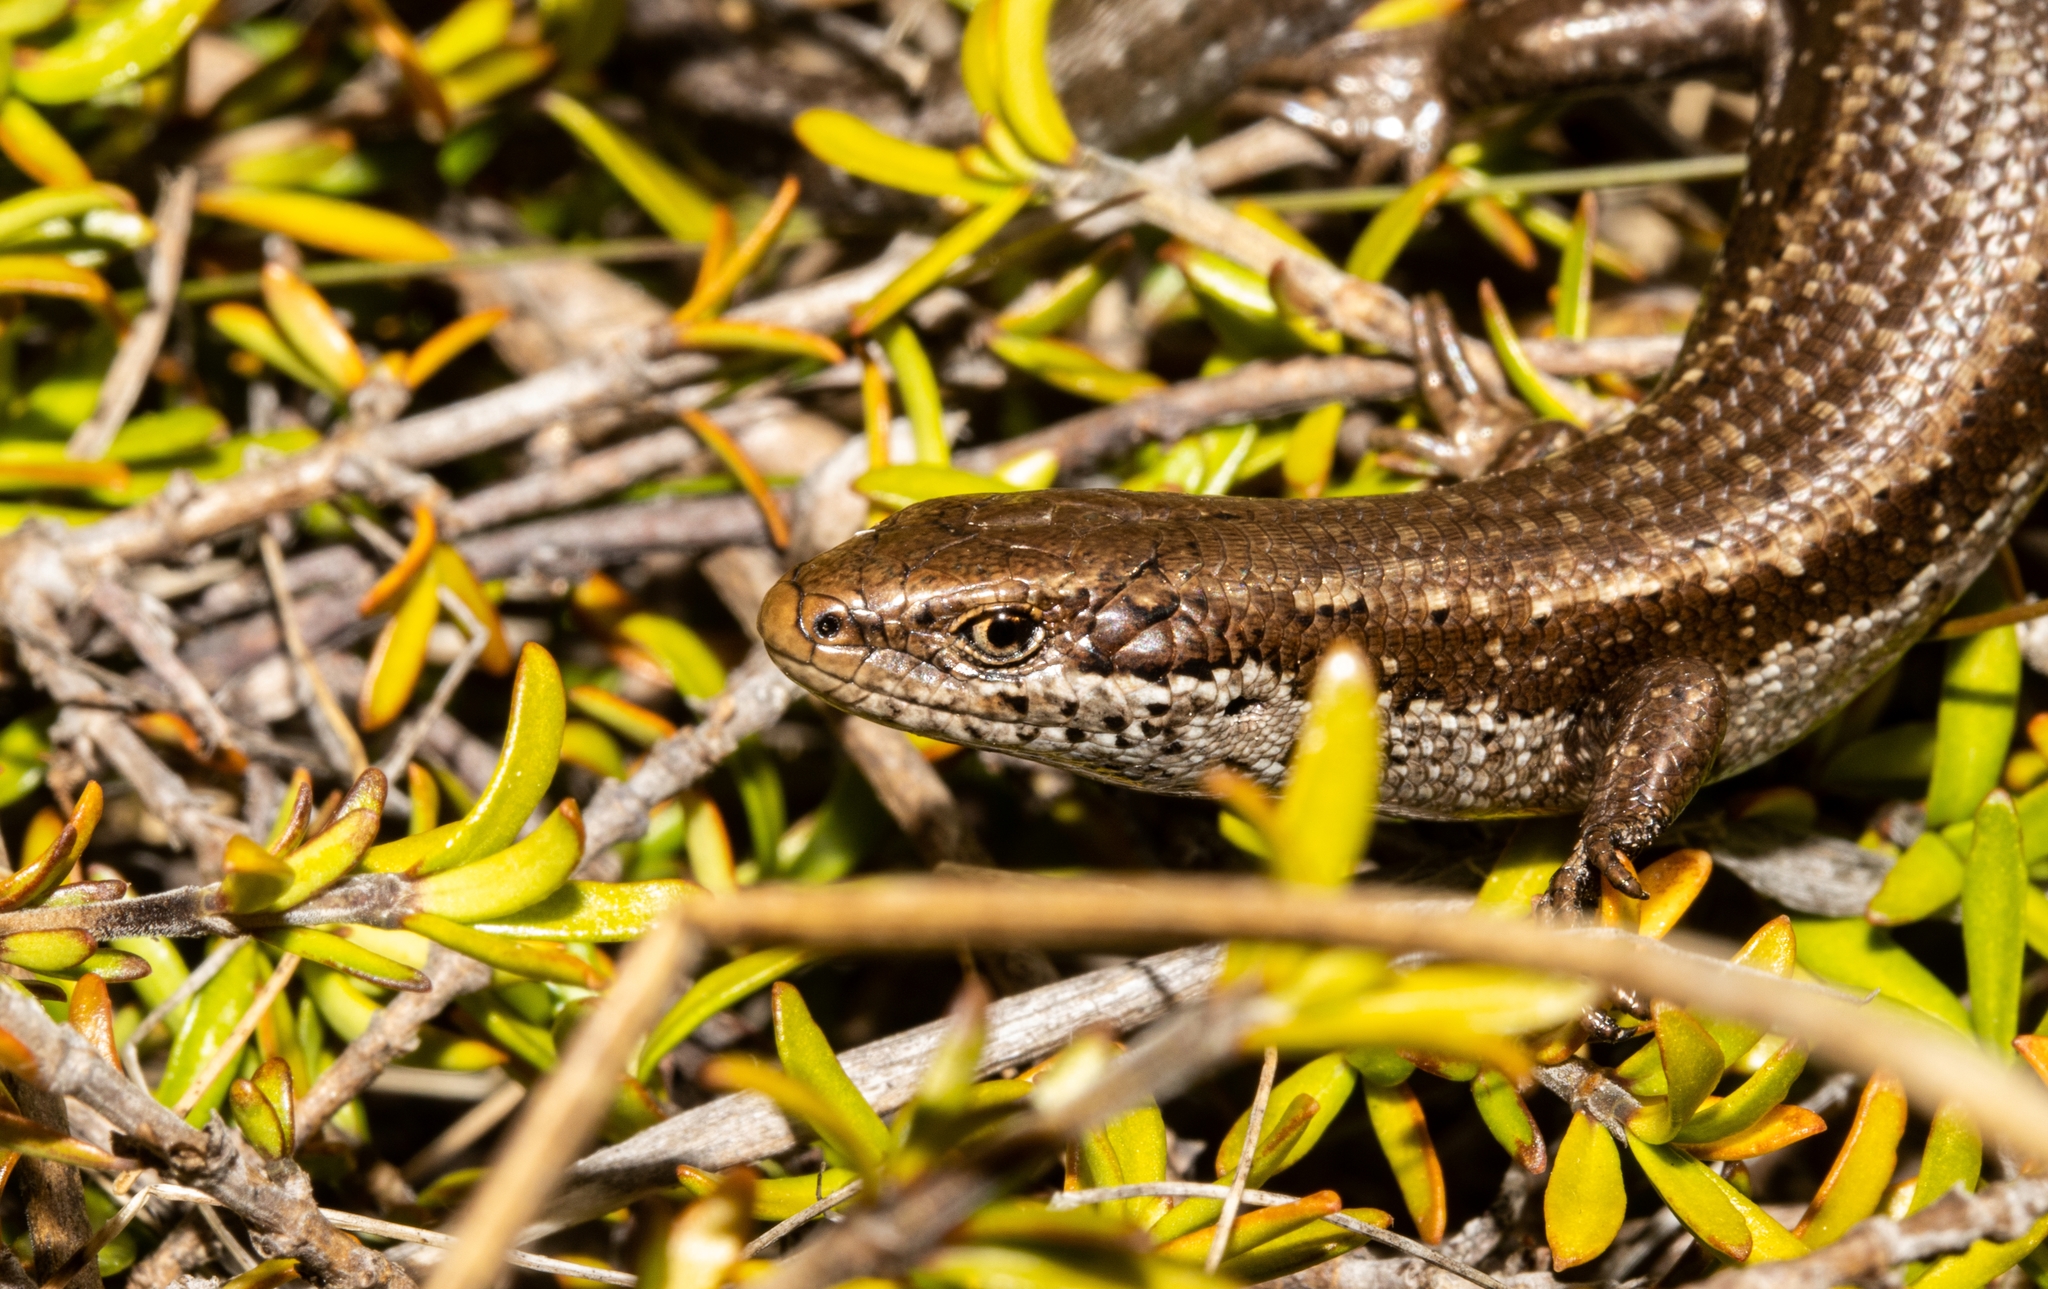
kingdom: Animalia
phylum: Chordata
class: Squamata
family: Scincidae
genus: Oligosoma
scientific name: Oligosoma burganae
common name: Burgan skink
